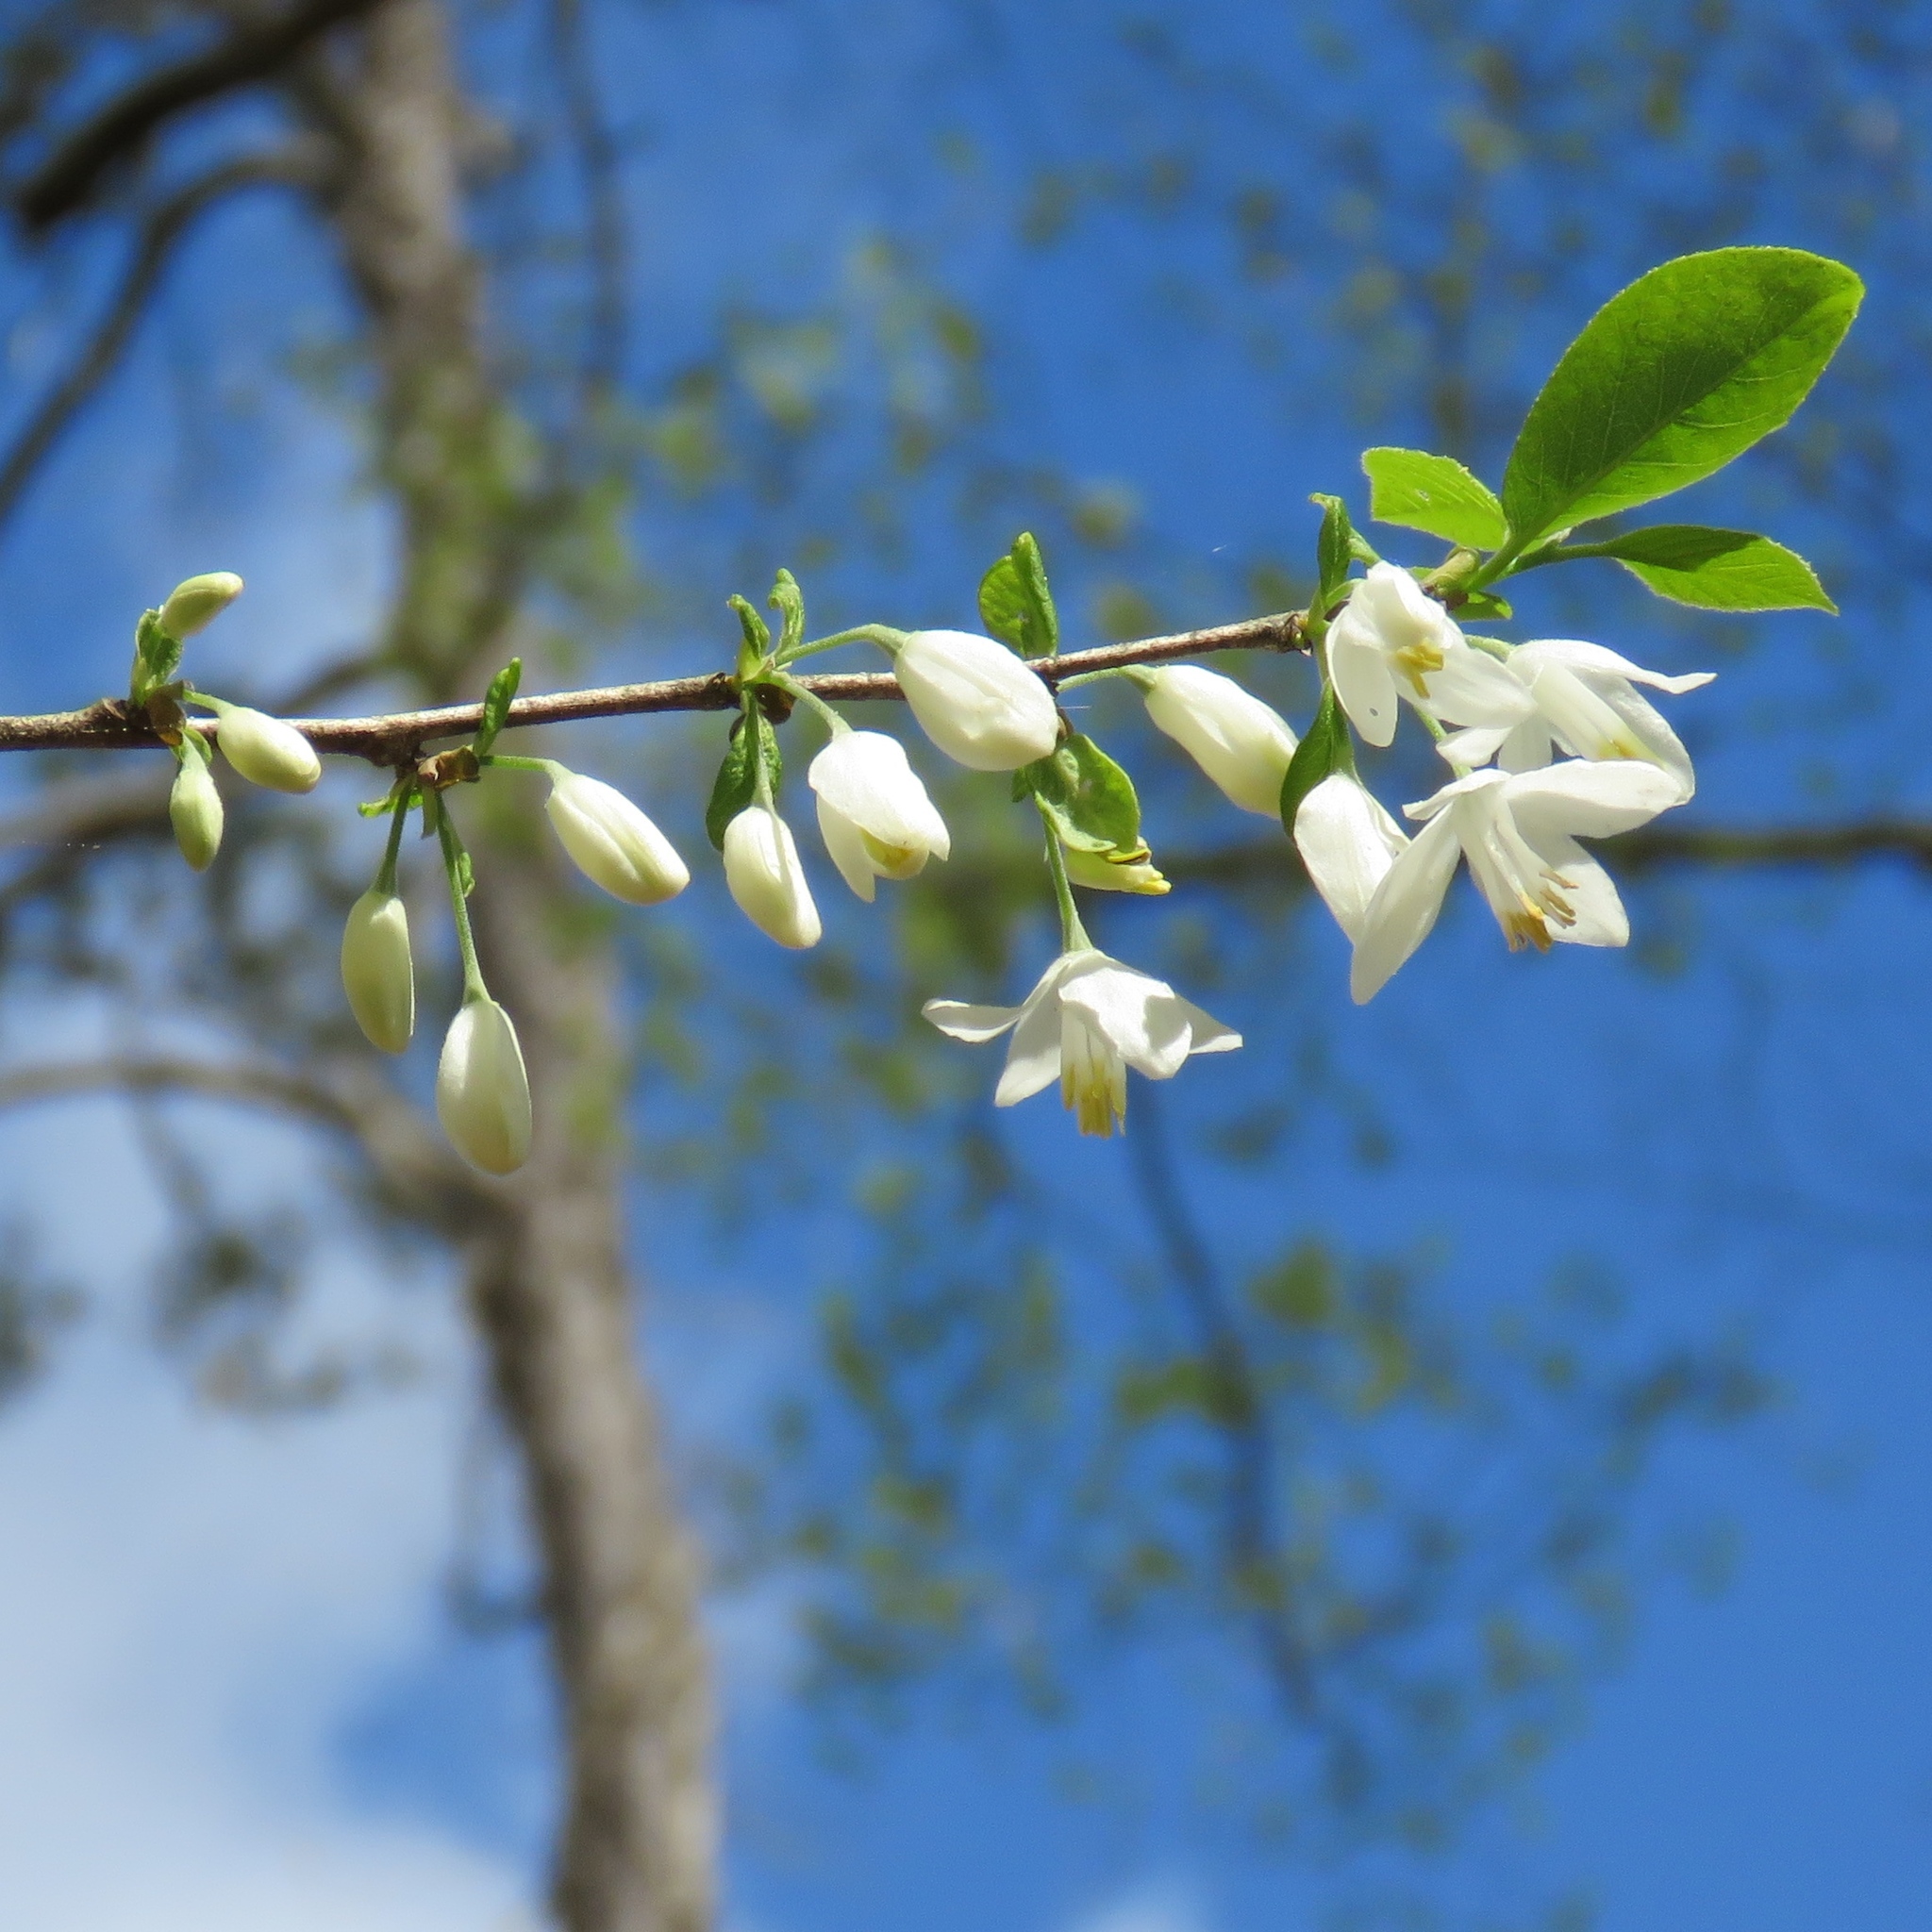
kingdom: Plantae
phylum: Tracheophyta
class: Magnoliopsida
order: Ericales
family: Styracaceae
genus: Halesia
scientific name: Halesia diptera
